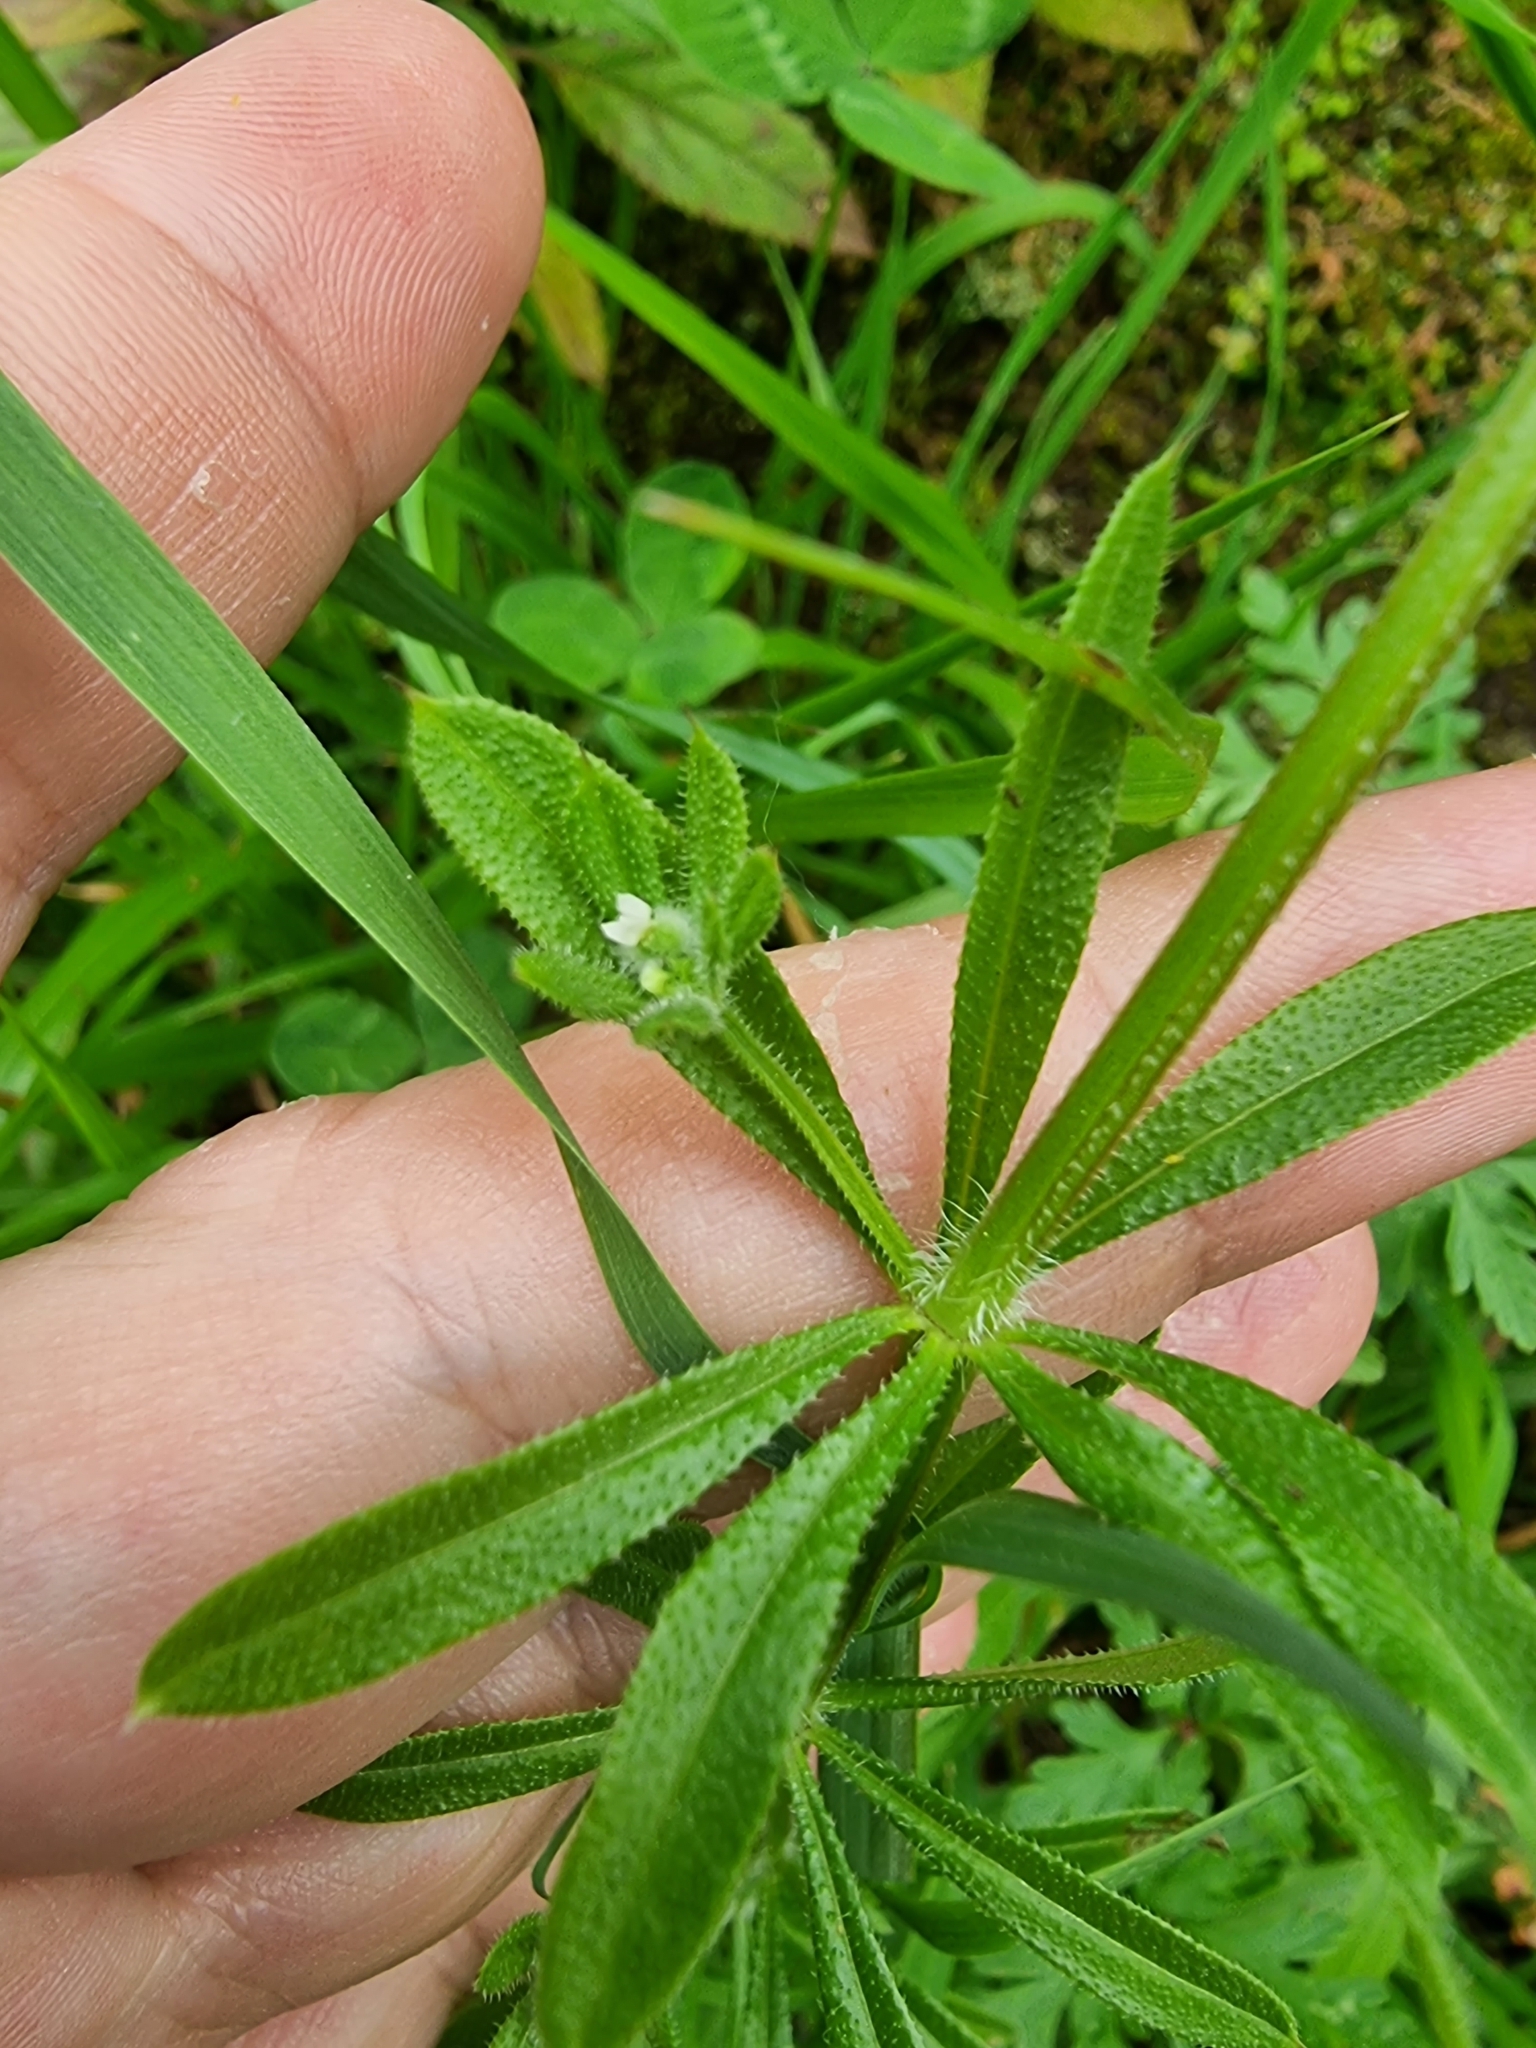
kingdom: Plantae
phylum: Tracheophyta
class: Magnoliopsida
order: Gentianales
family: Rubiaceae
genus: Galium
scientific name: Galium aparine
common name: Cleavers
